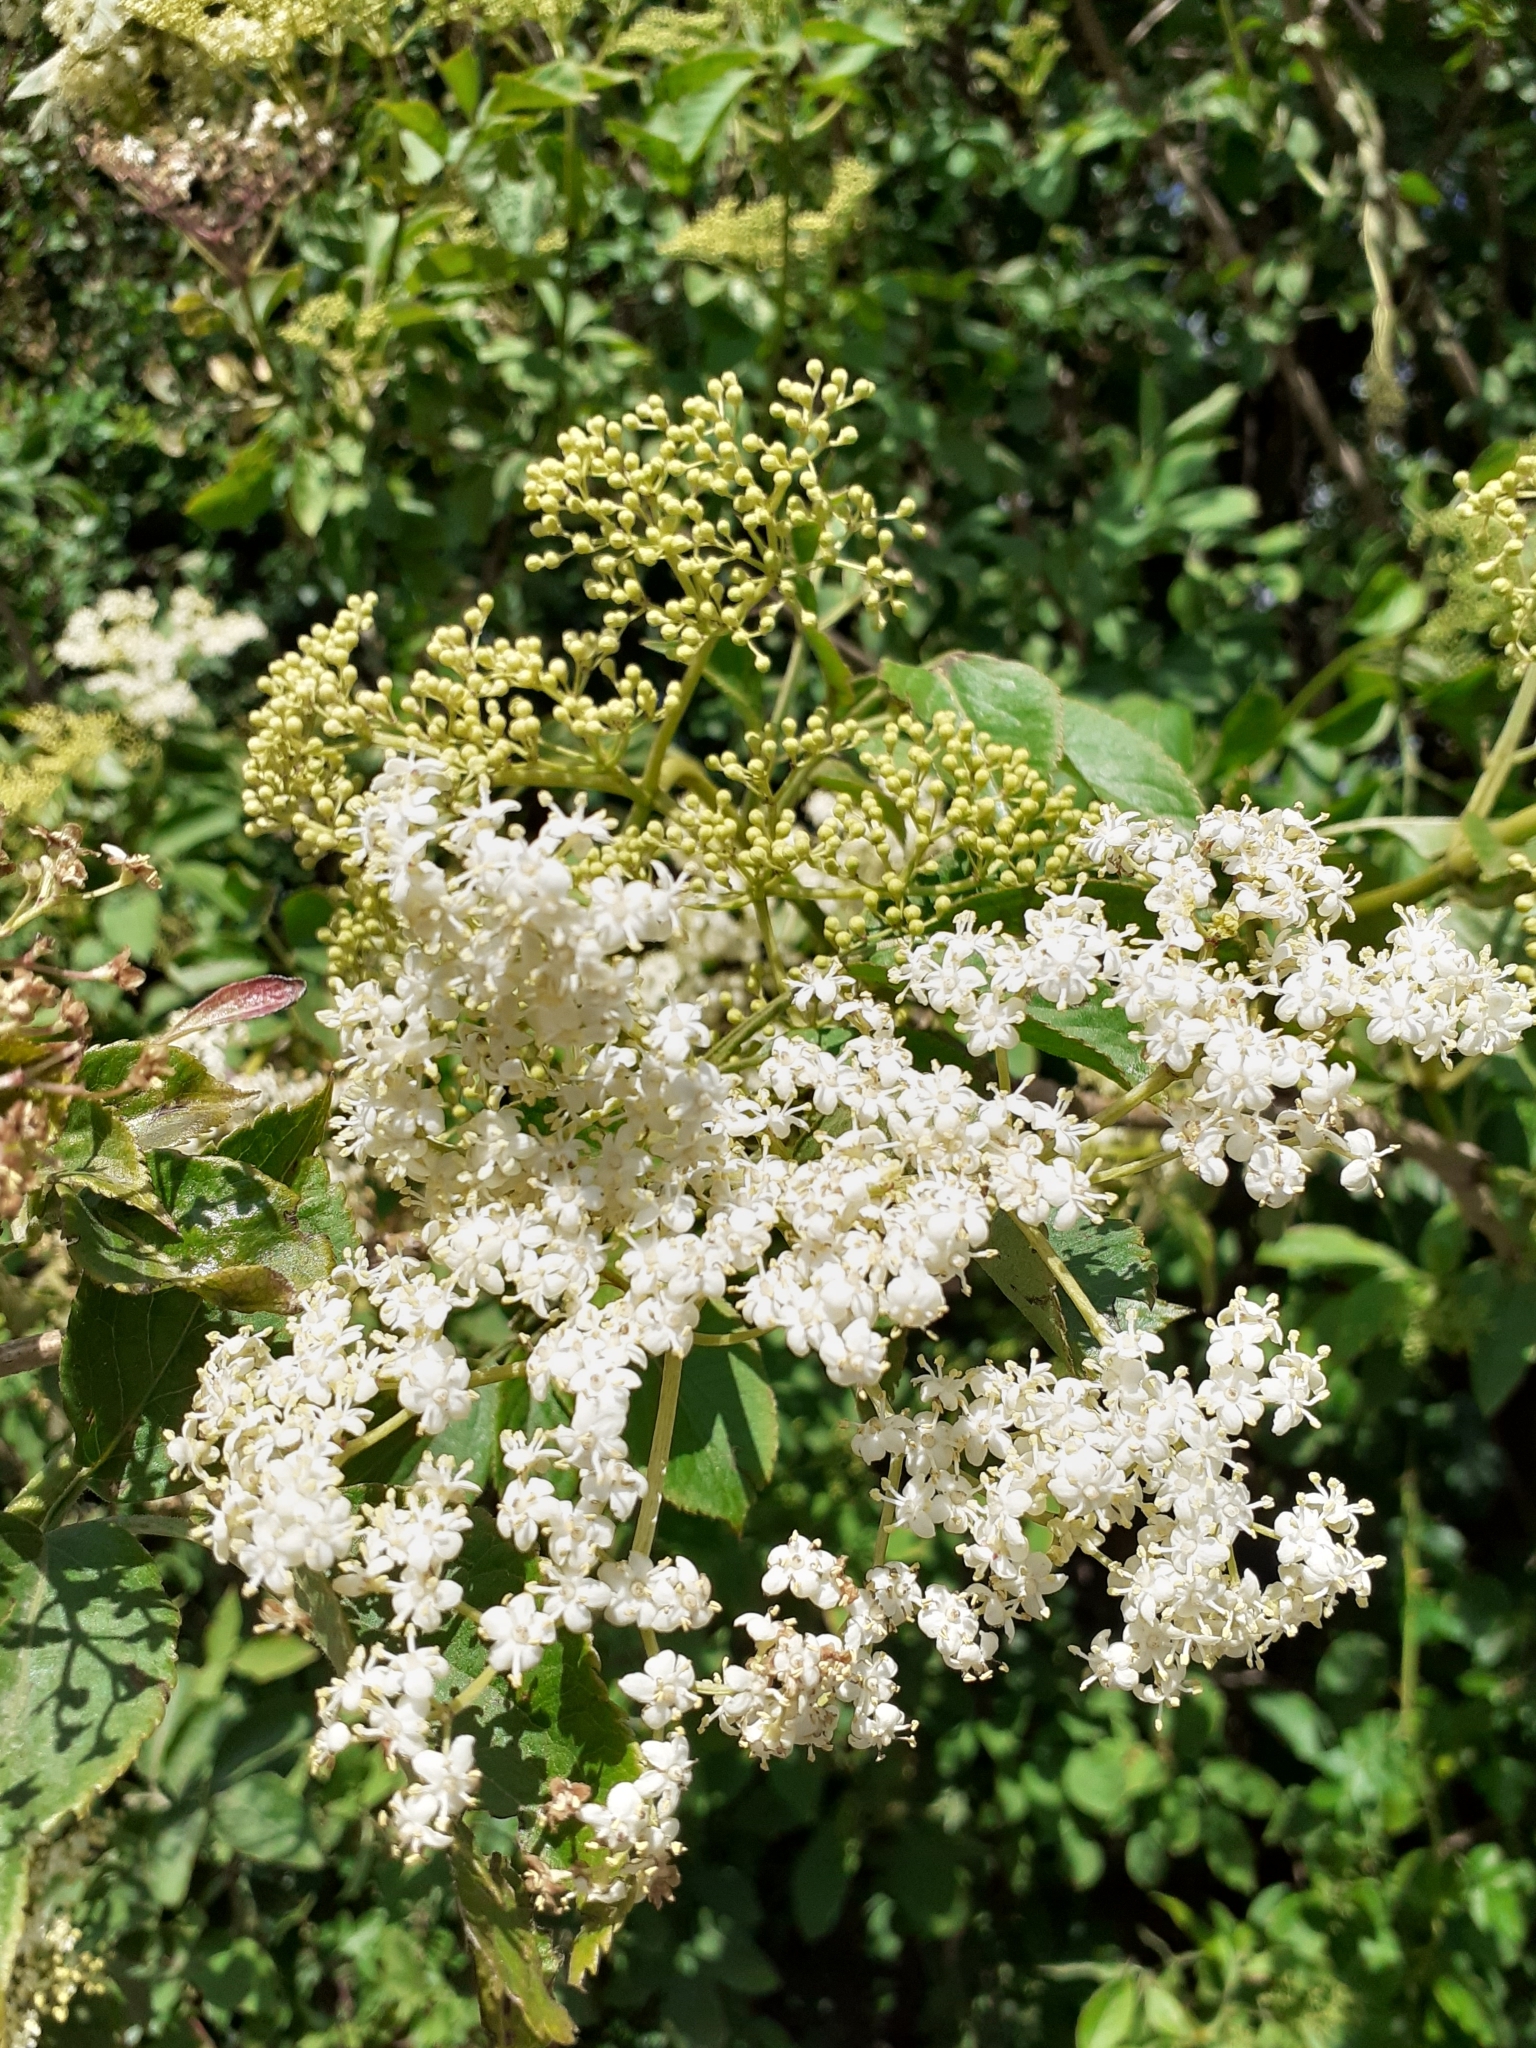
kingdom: Plantae
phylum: Tracheophyta
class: Magnoliopsida
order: Dipsacales
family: Viburnaceae
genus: Sambucus
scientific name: Sambucus nigra
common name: Elder
